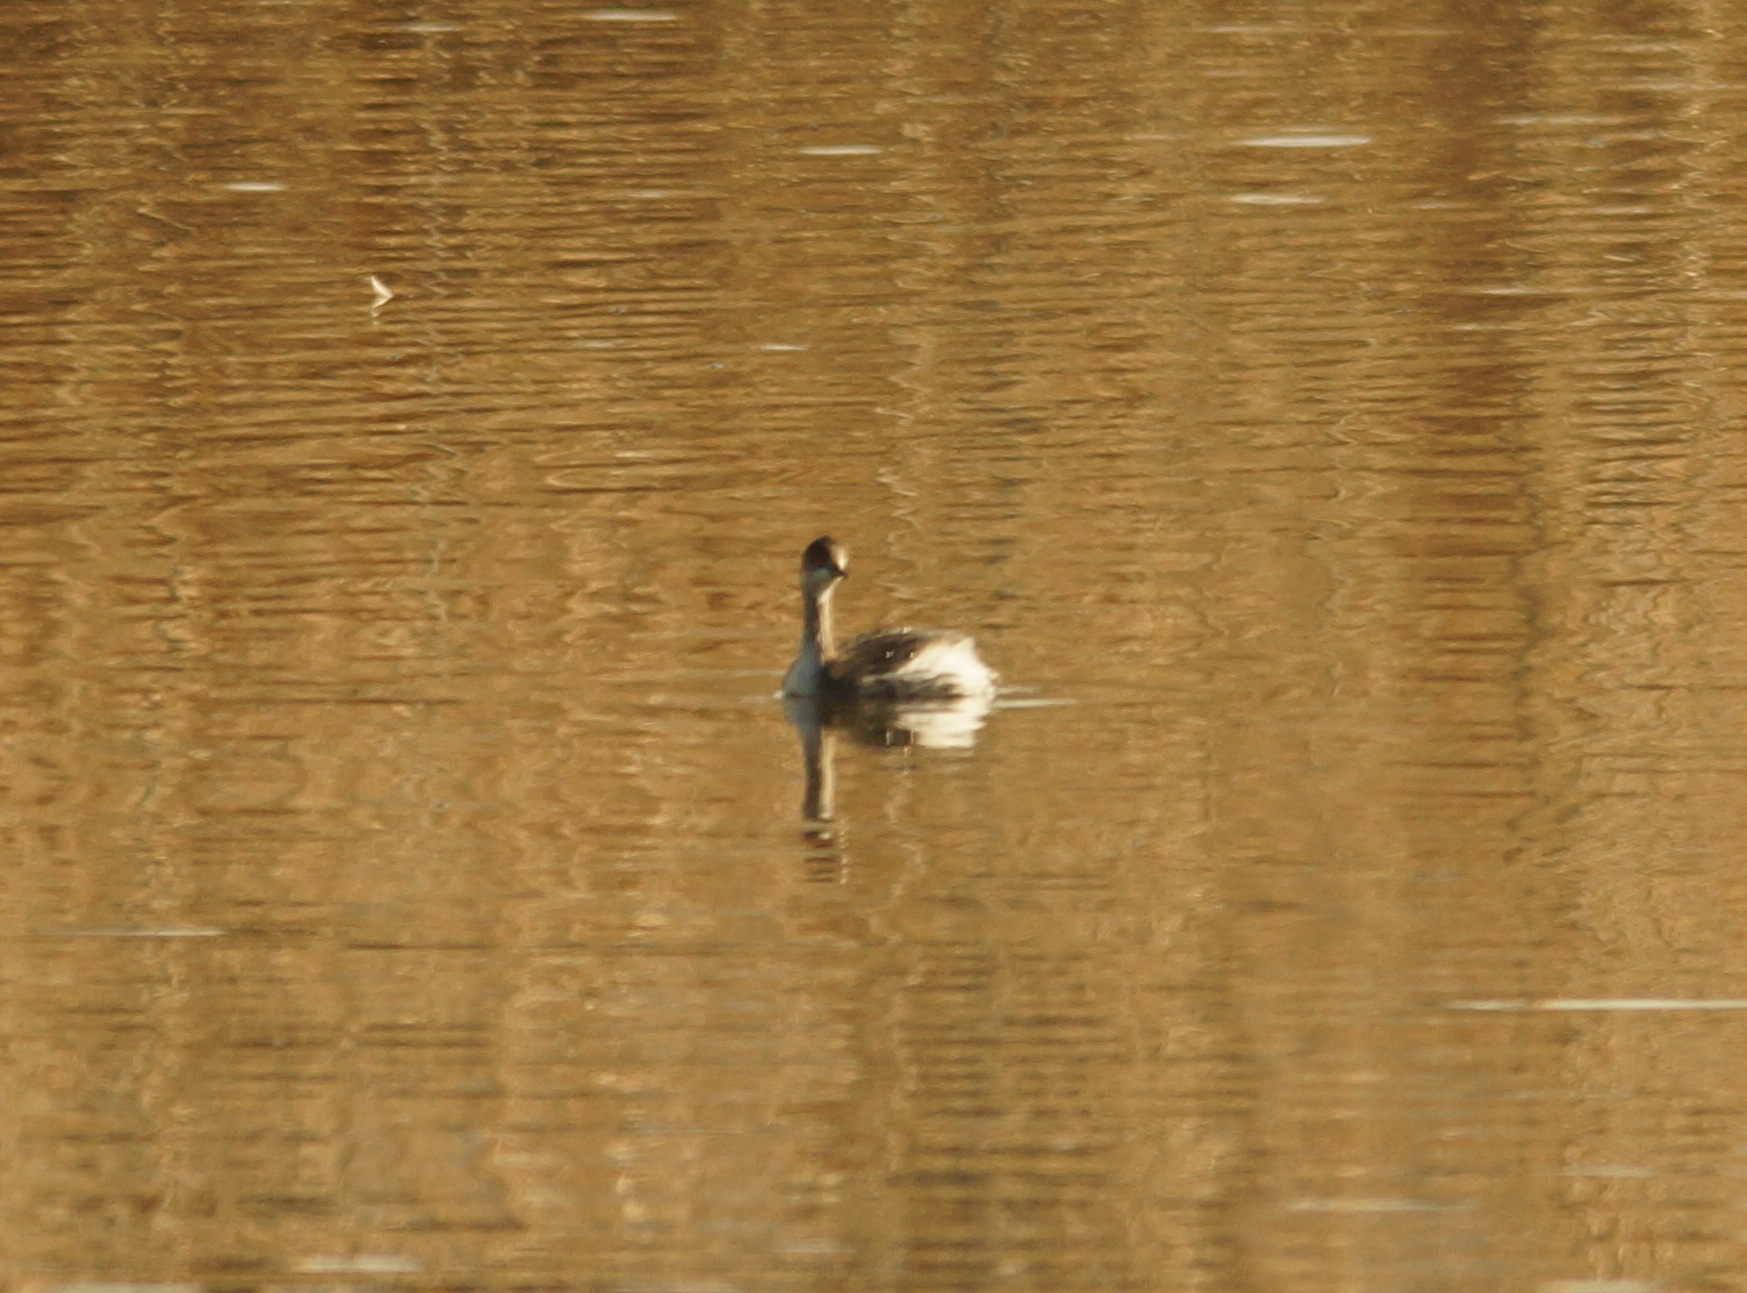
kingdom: Animalia
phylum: Chordata
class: Aves
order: Podicipediformes
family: Podicipedidae
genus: Podiceps
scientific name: Podiceps nigricollis
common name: Black-necked grebe
